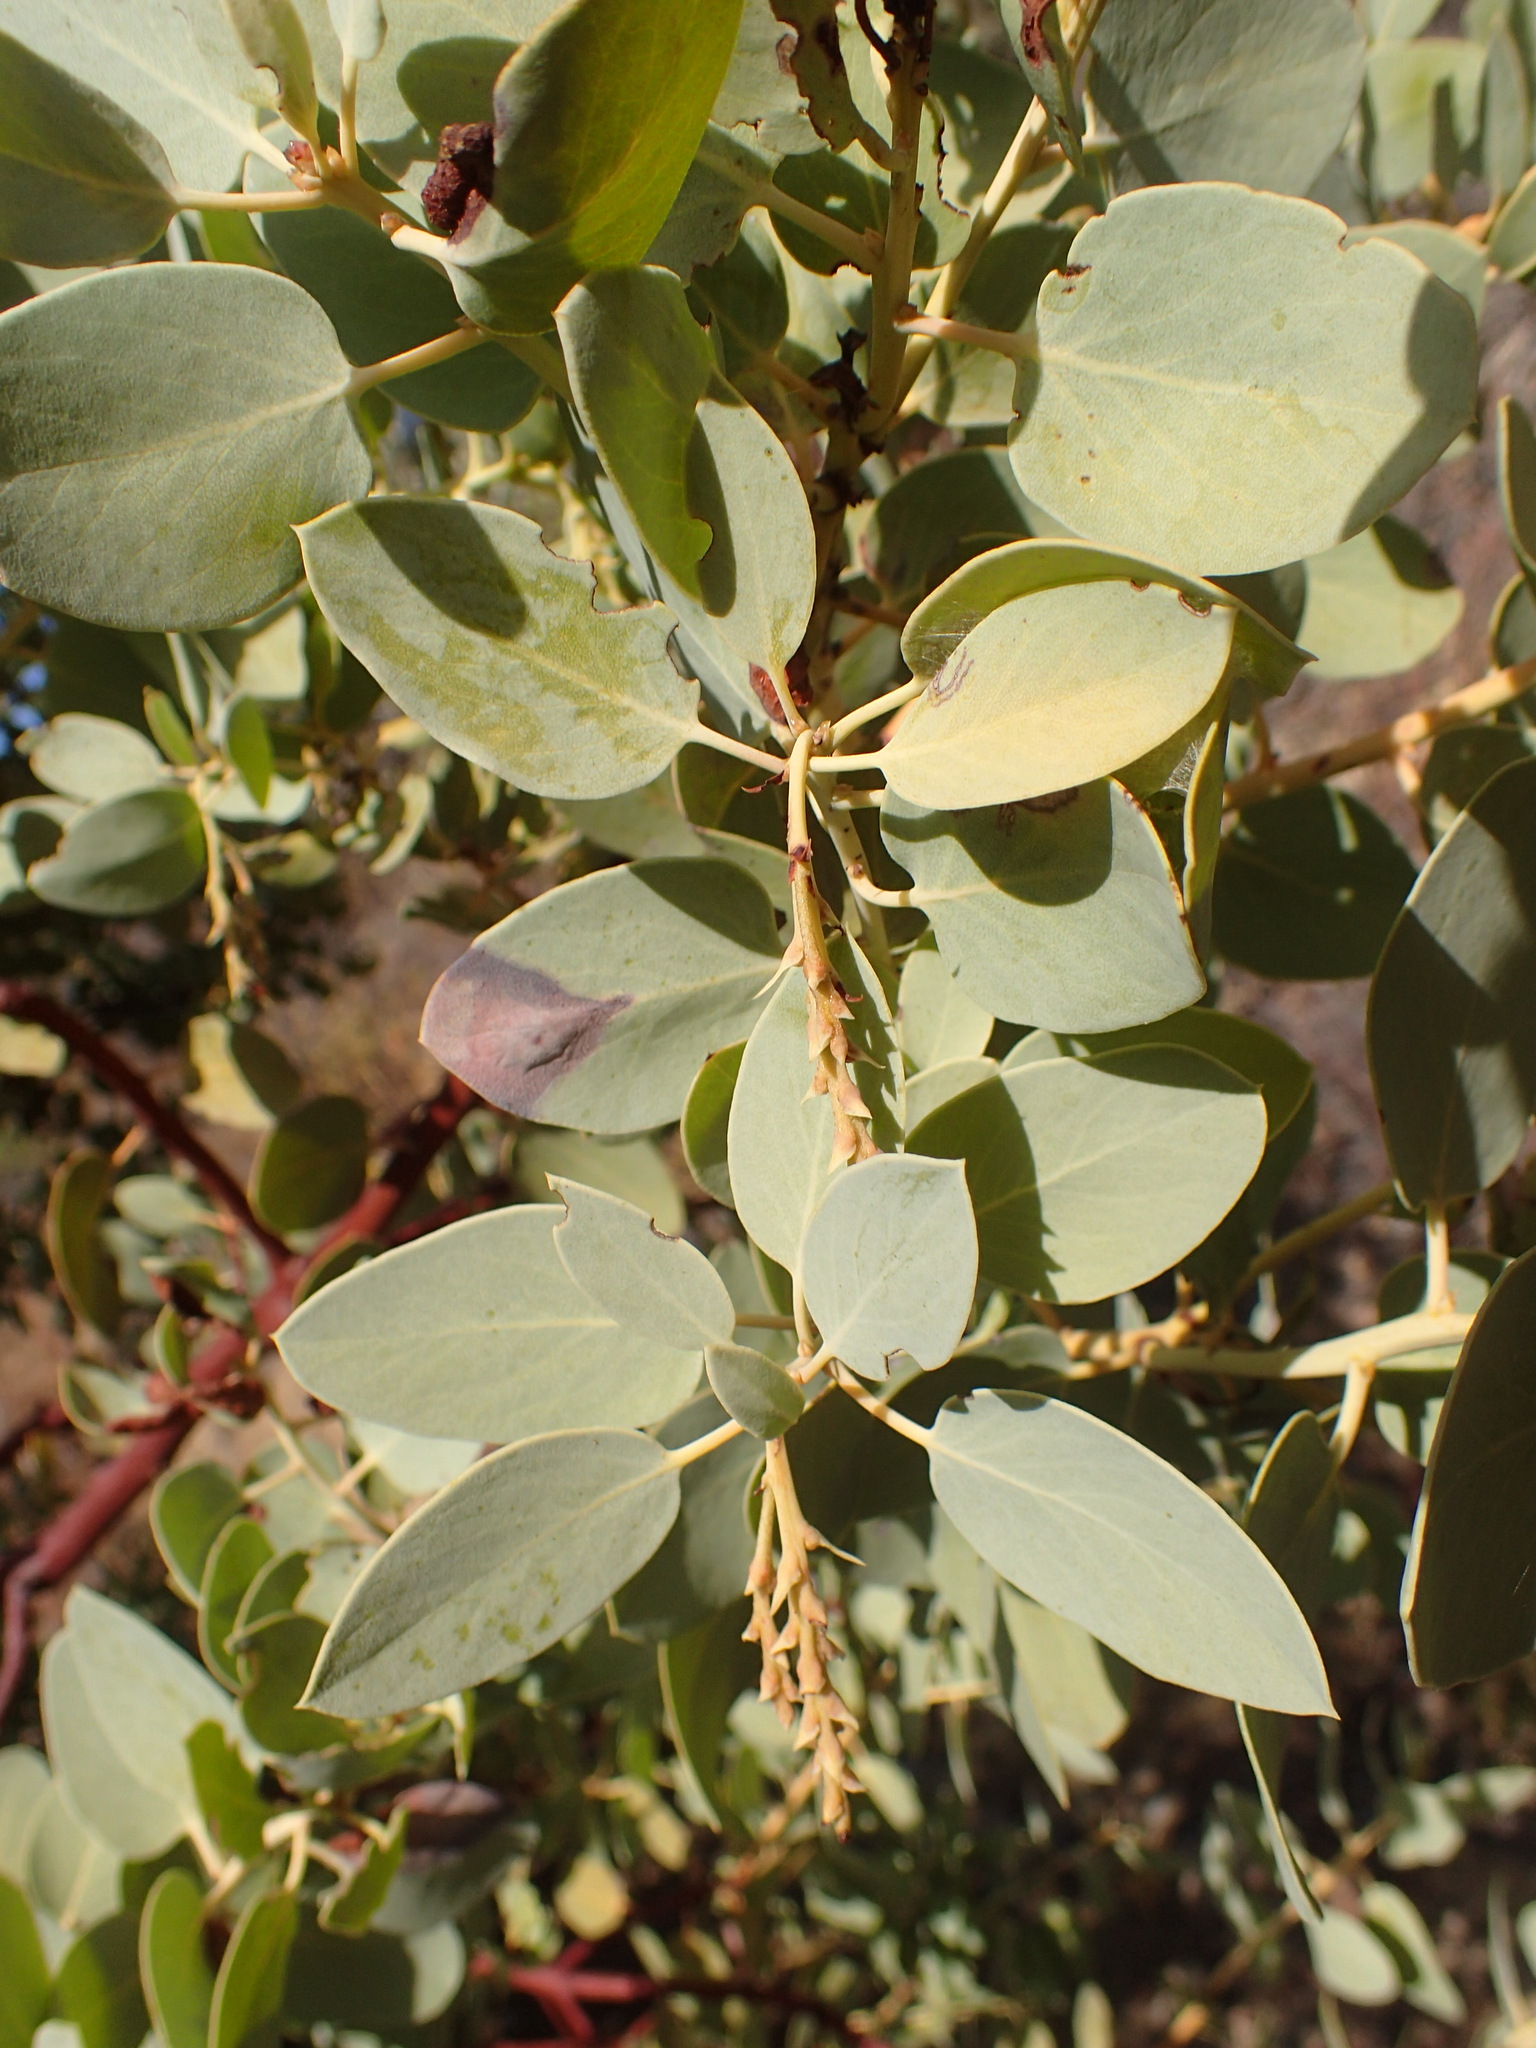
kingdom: Plantae
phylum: Tracheophyta
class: Magnoliopsida
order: Ericales
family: Ericaceae
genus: Arctostaphylos
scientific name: Arctostaphylos glauca
